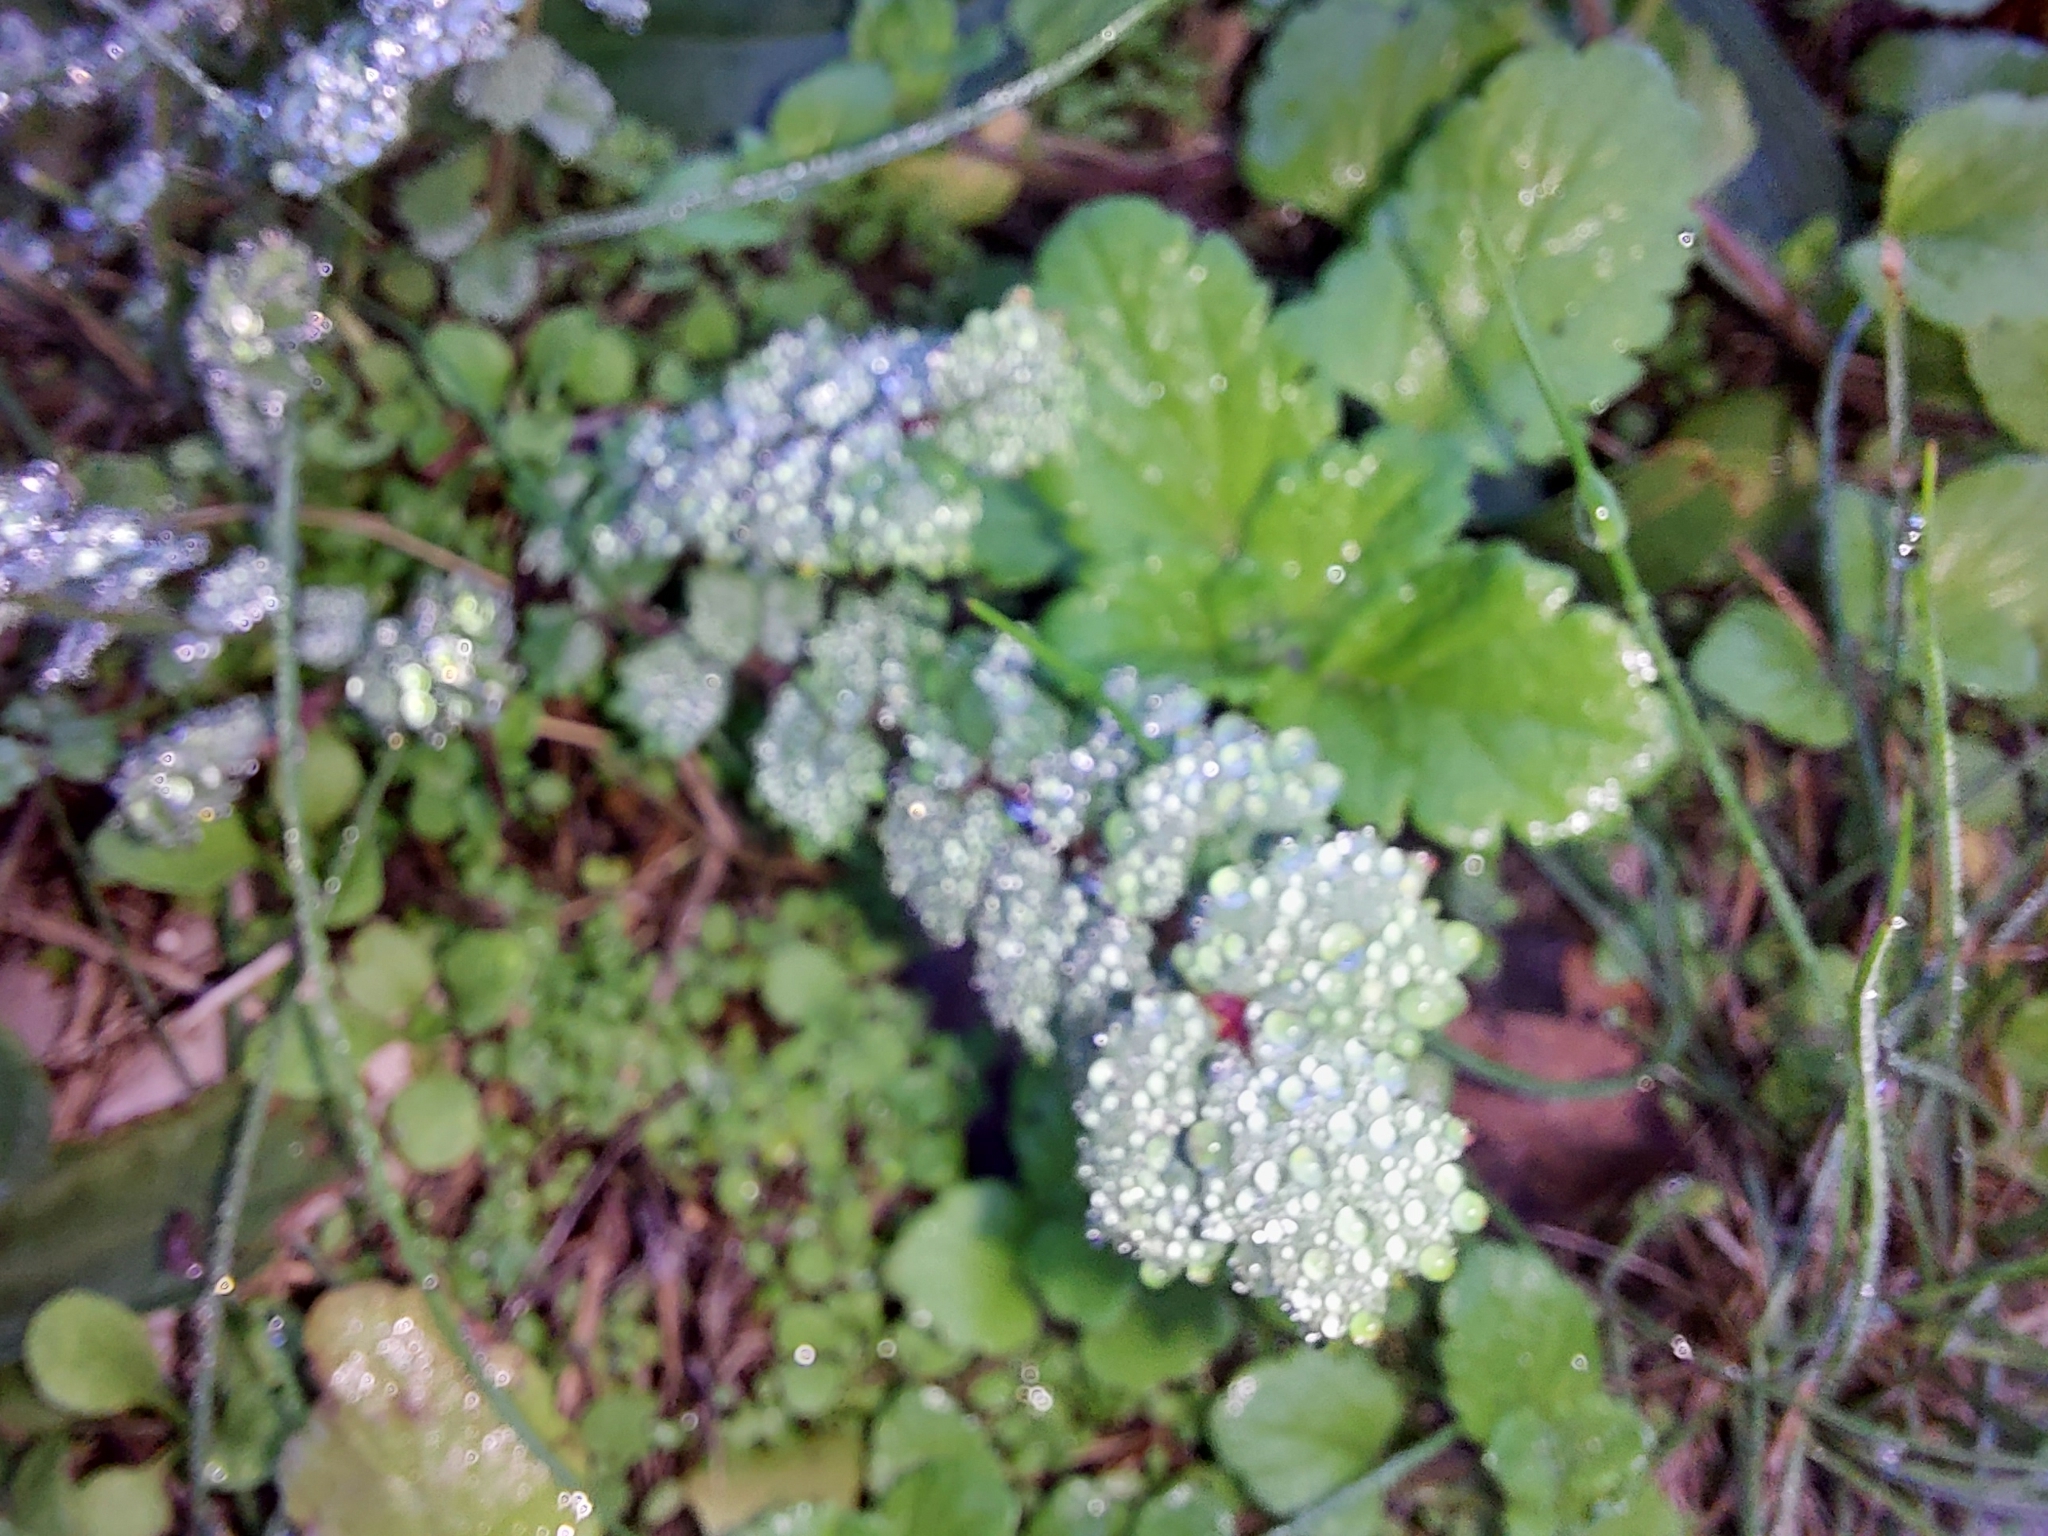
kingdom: Plantae
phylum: Tracheophyta
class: Magnoliopsida
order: Rosales
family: Rosaceae
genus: Poterium
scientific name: Poterium sanguisorba
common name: Salad burnet
